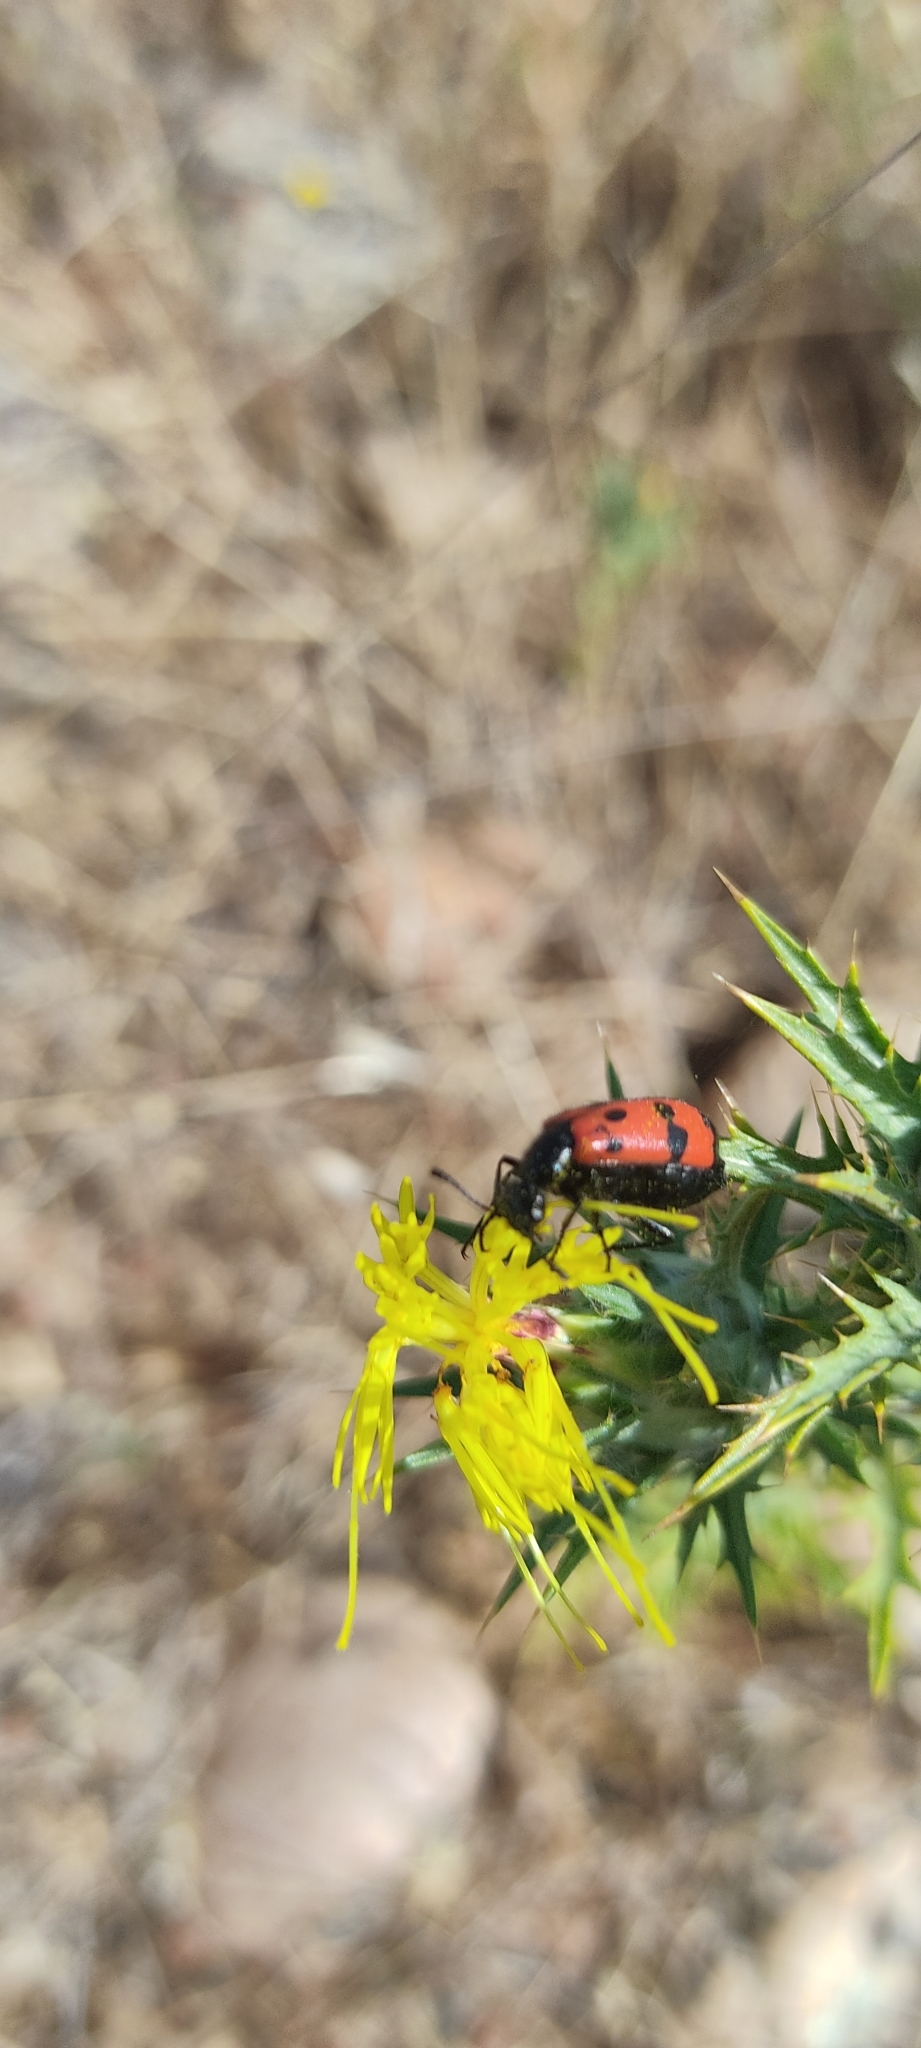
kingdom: Animalia
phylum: Arthropoda
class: Insecta
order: Coleoptera
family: Meloidae
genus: Mylabris
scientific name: Mylabris quadripunctata
